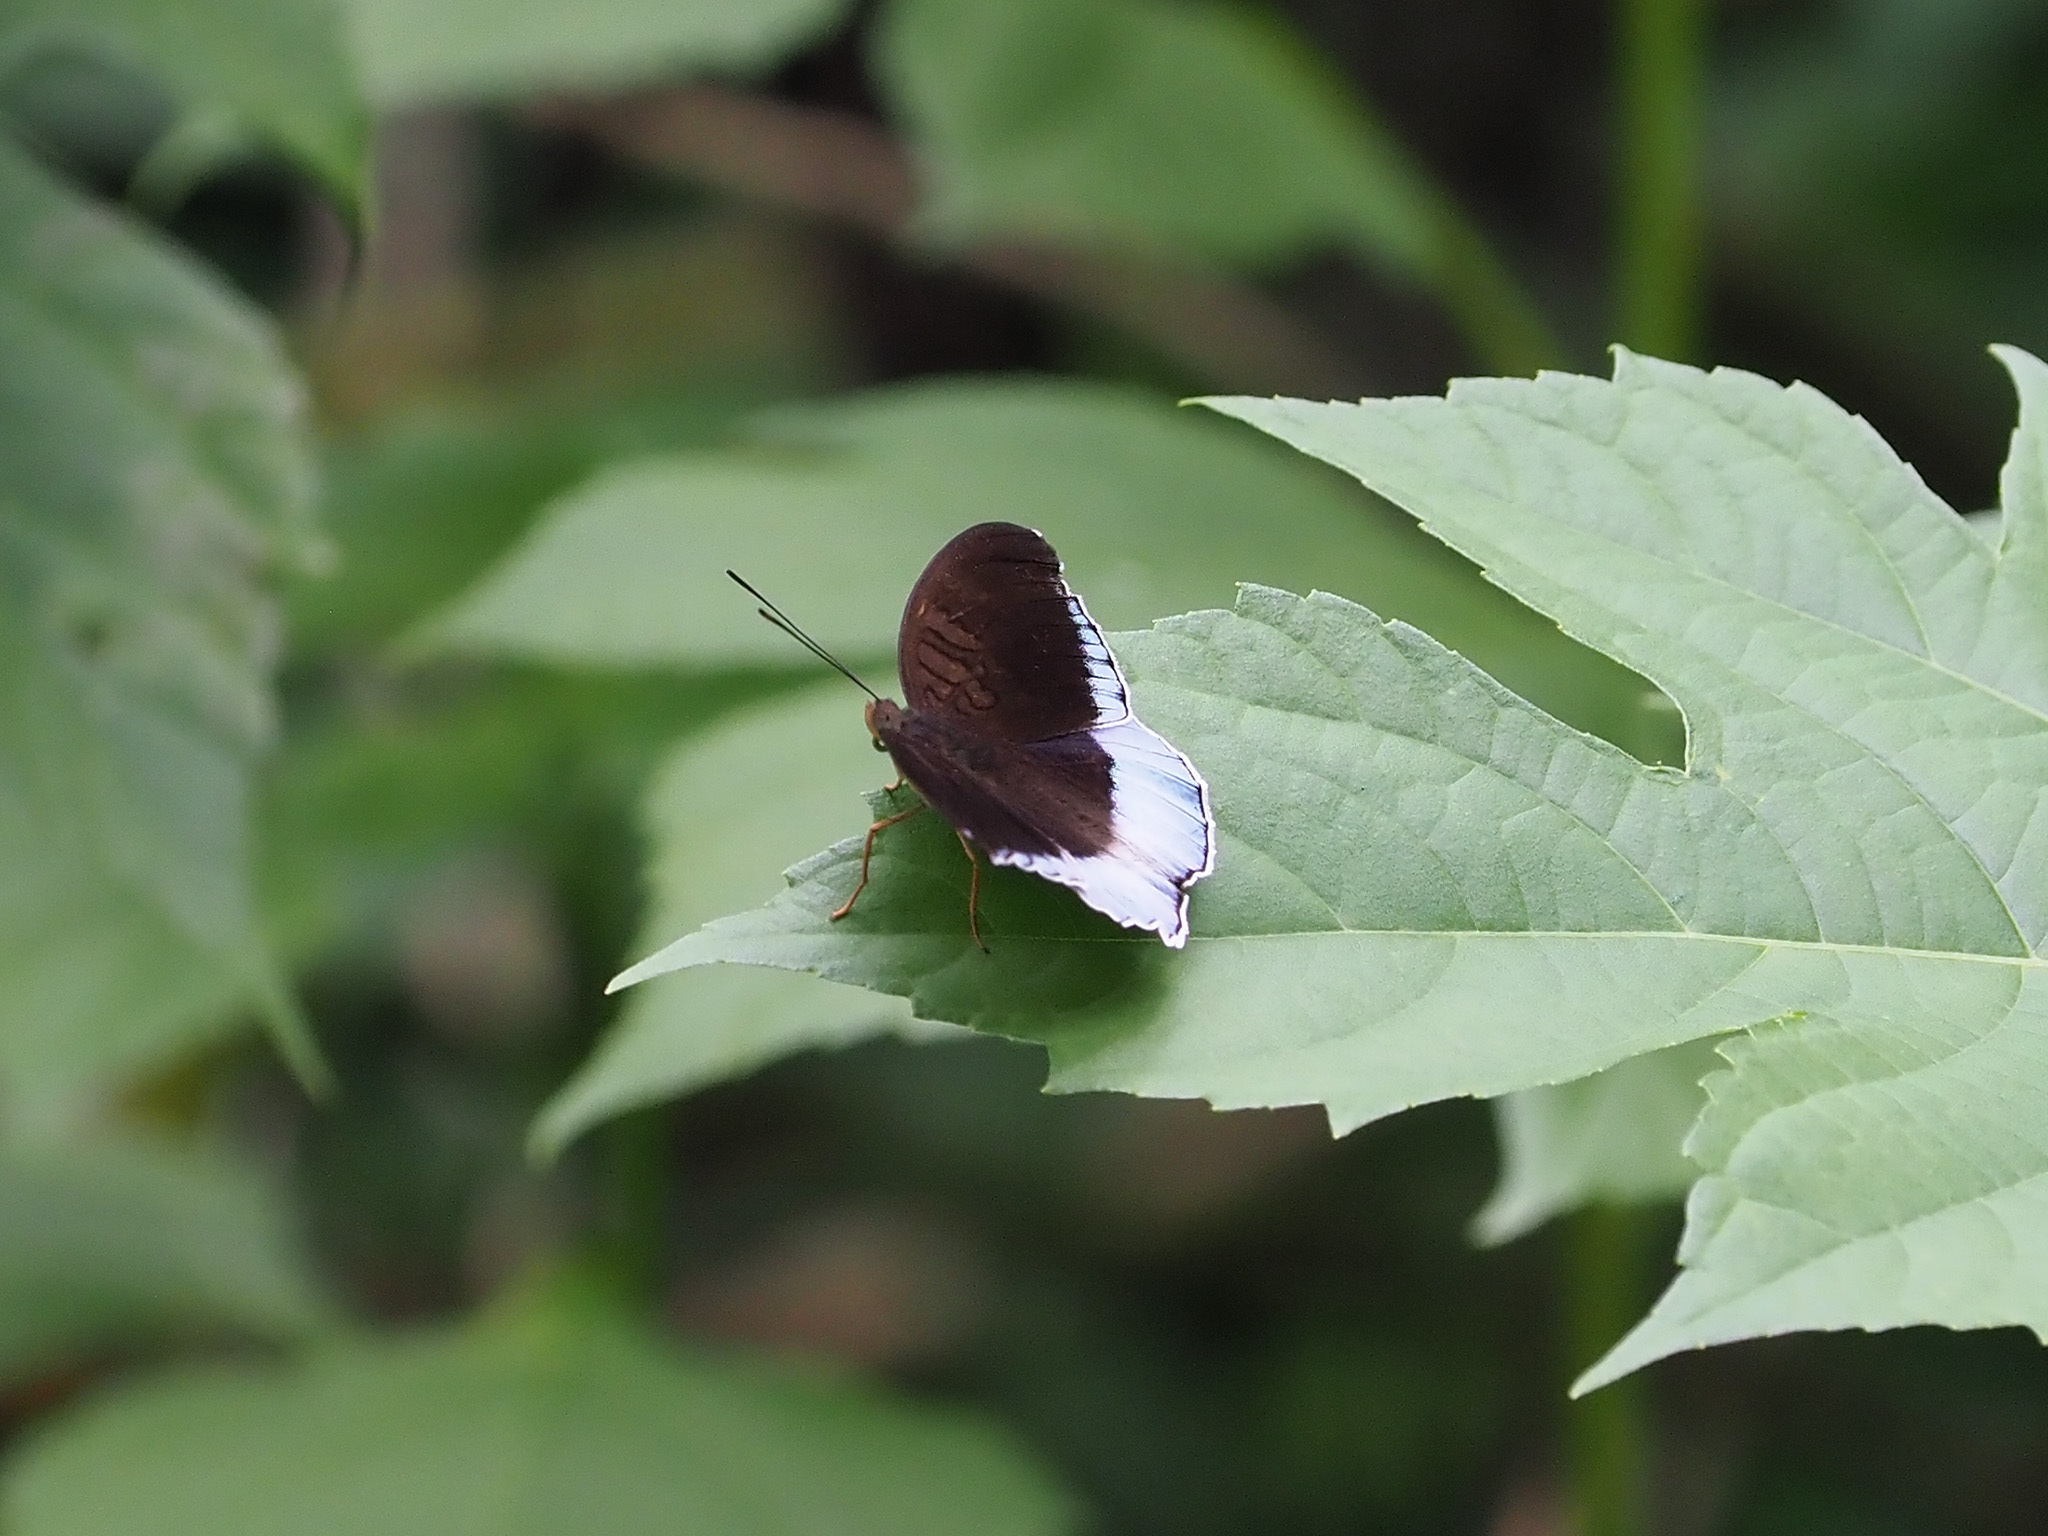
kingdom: Animalia
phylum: Arthropoda
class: Insecta
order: Lepidoptera
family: Nymphalidae
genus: Tanaecia
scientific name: Tanaecia iapis
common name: Horsfield's baron
